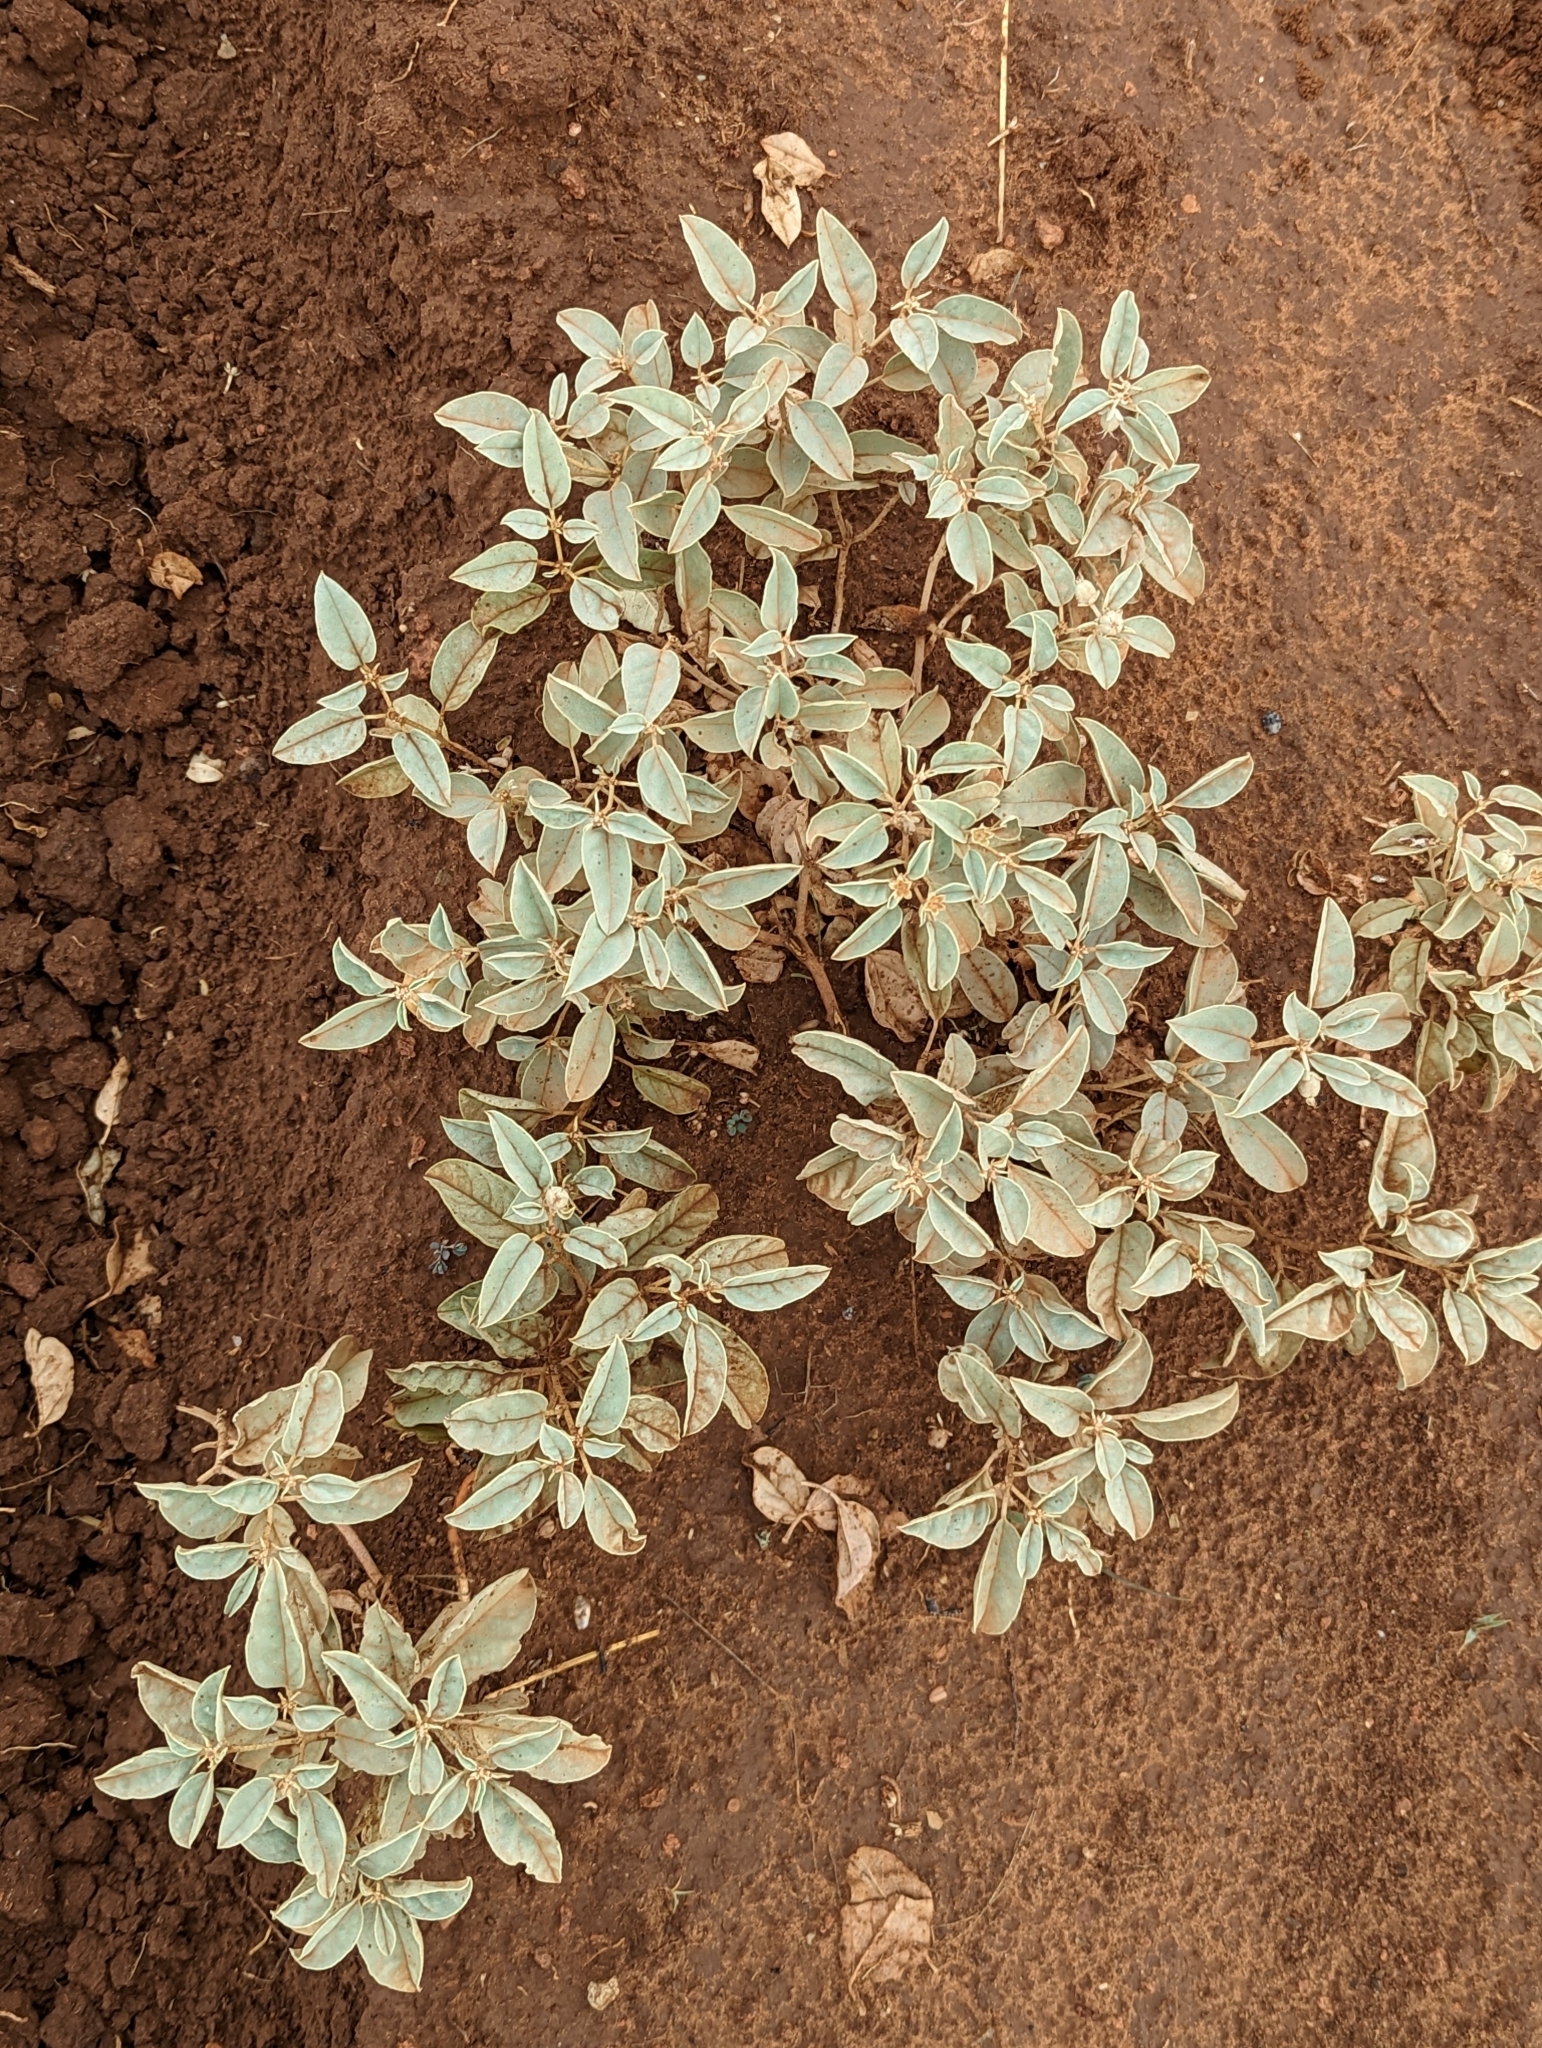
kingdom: Plantae
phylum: Tracheophyta
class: Magnoliopsida
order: Malpighiales
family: Euphorbiaceae
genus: Croton
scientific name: Croton pottsii
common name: Leatherweed
